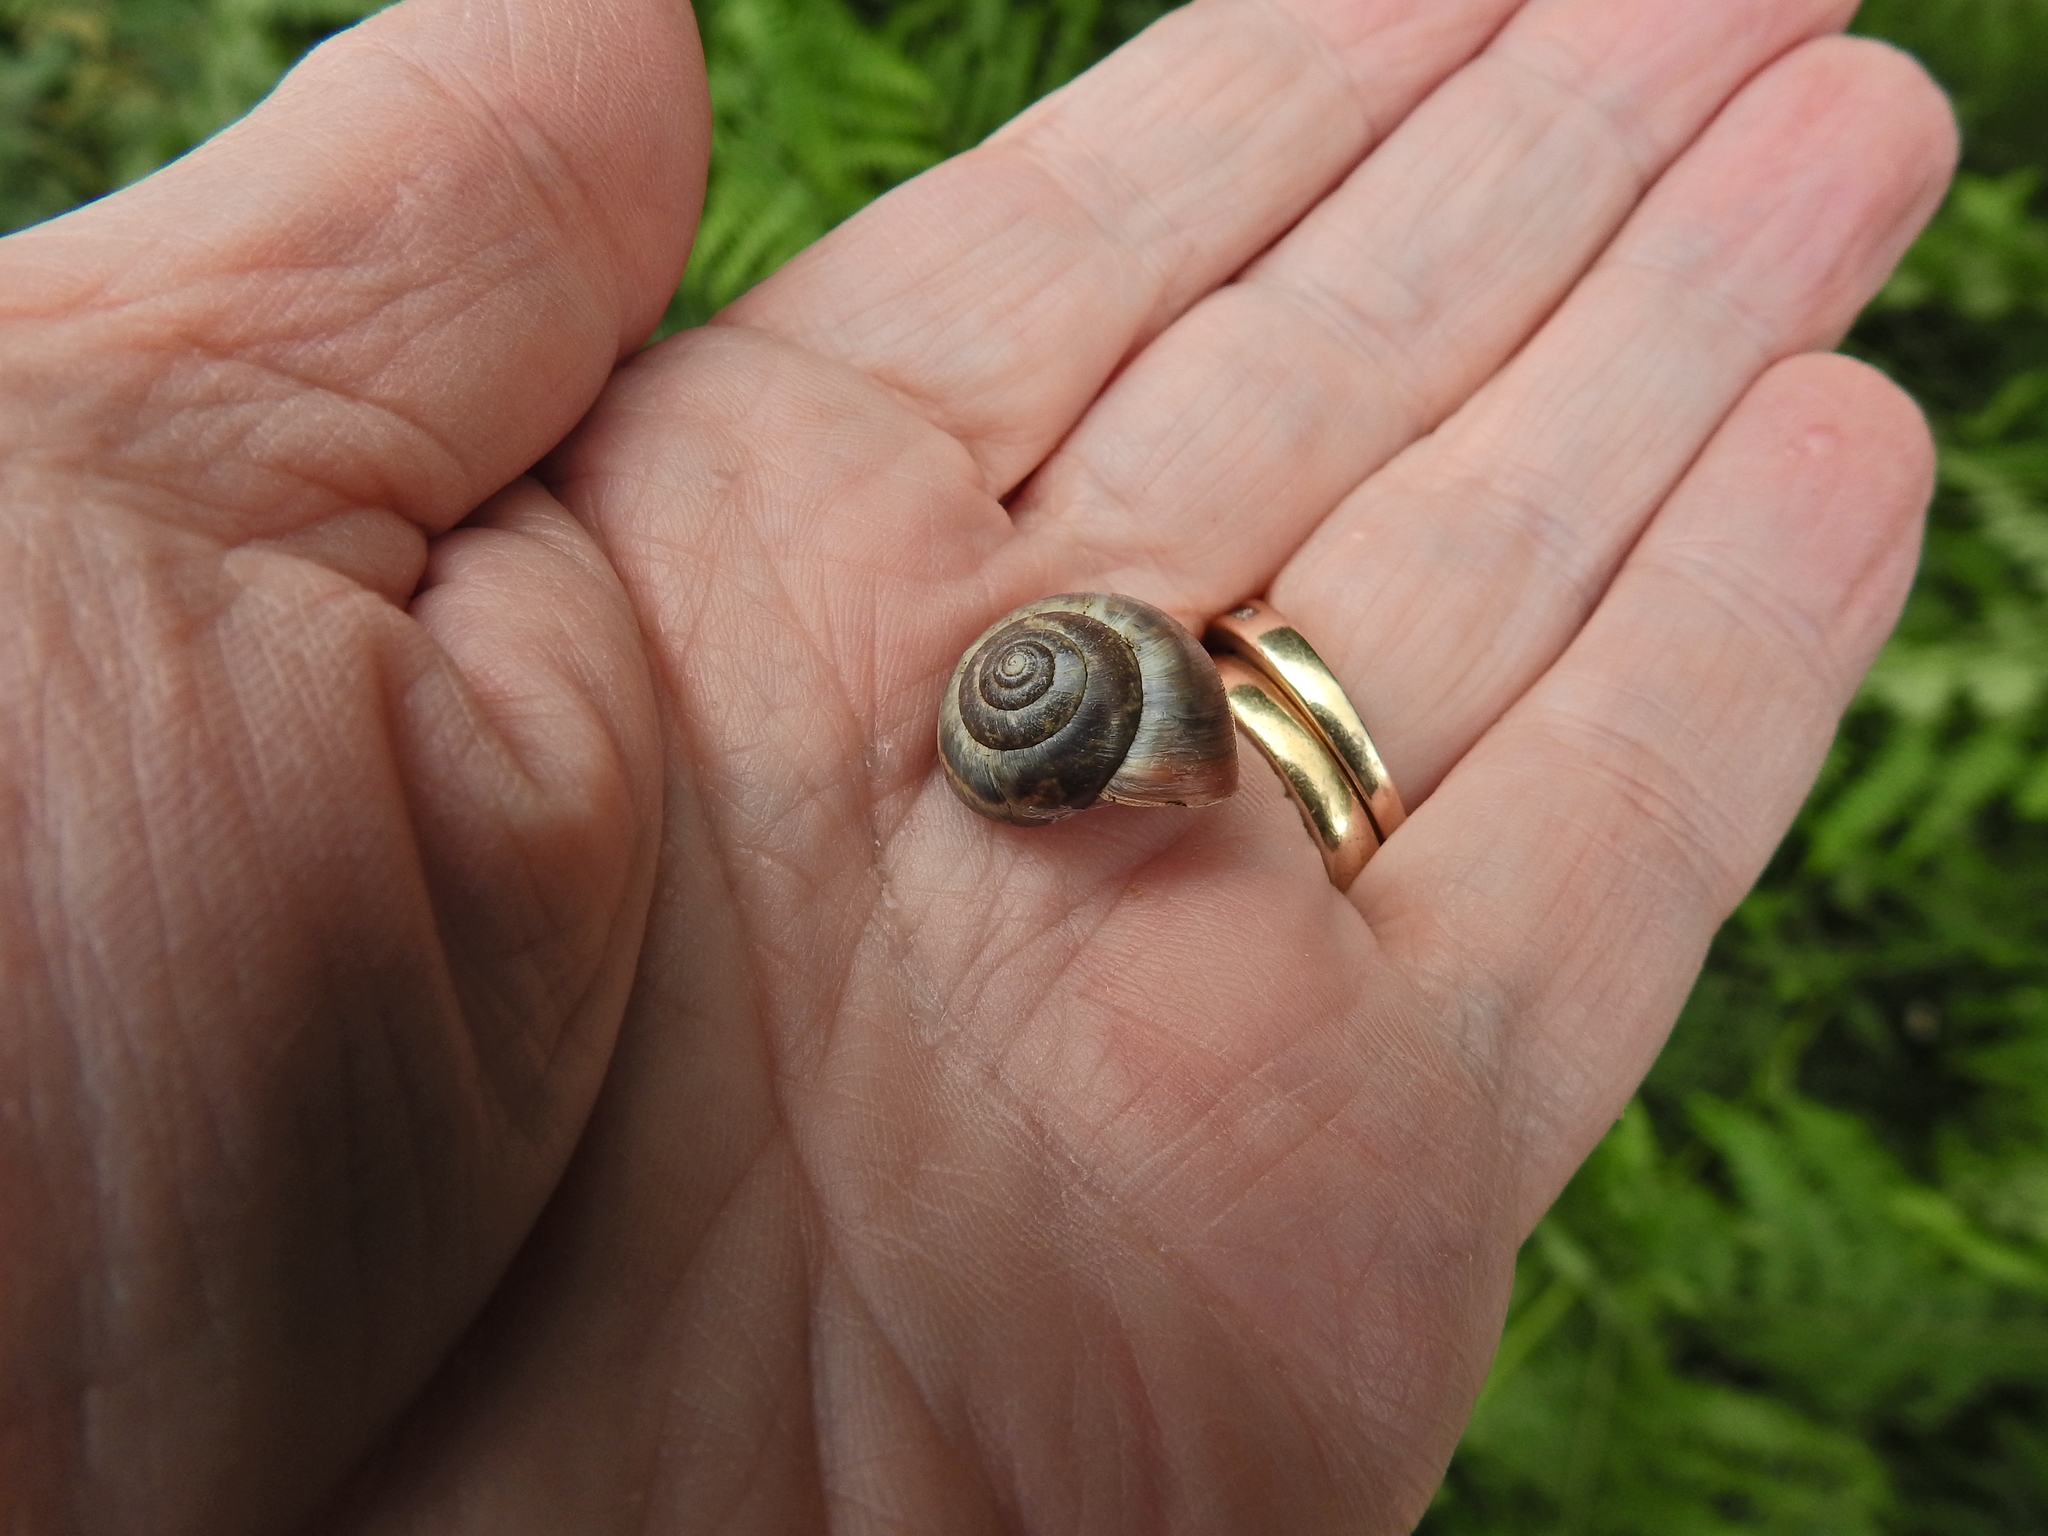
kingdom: Animalia
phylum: Mollusca
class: Gastropoda
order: Stylommatophora
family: Hygromiidae
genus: Monacha
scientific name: Monacha cantiana
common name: Kentish snail
